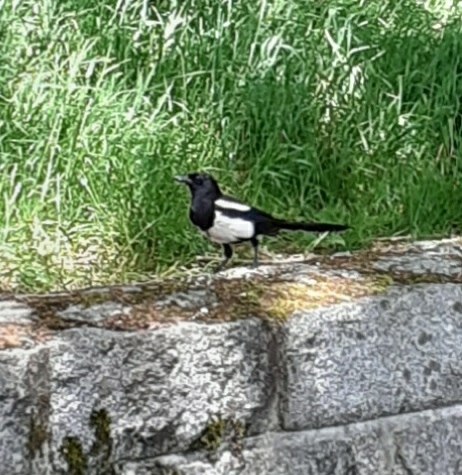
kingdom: Animalia
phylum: Chordata
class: Aves
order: Passeriformes
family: Corvidae
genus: Pica
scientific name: Pica pica
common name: Eurasian magpie
